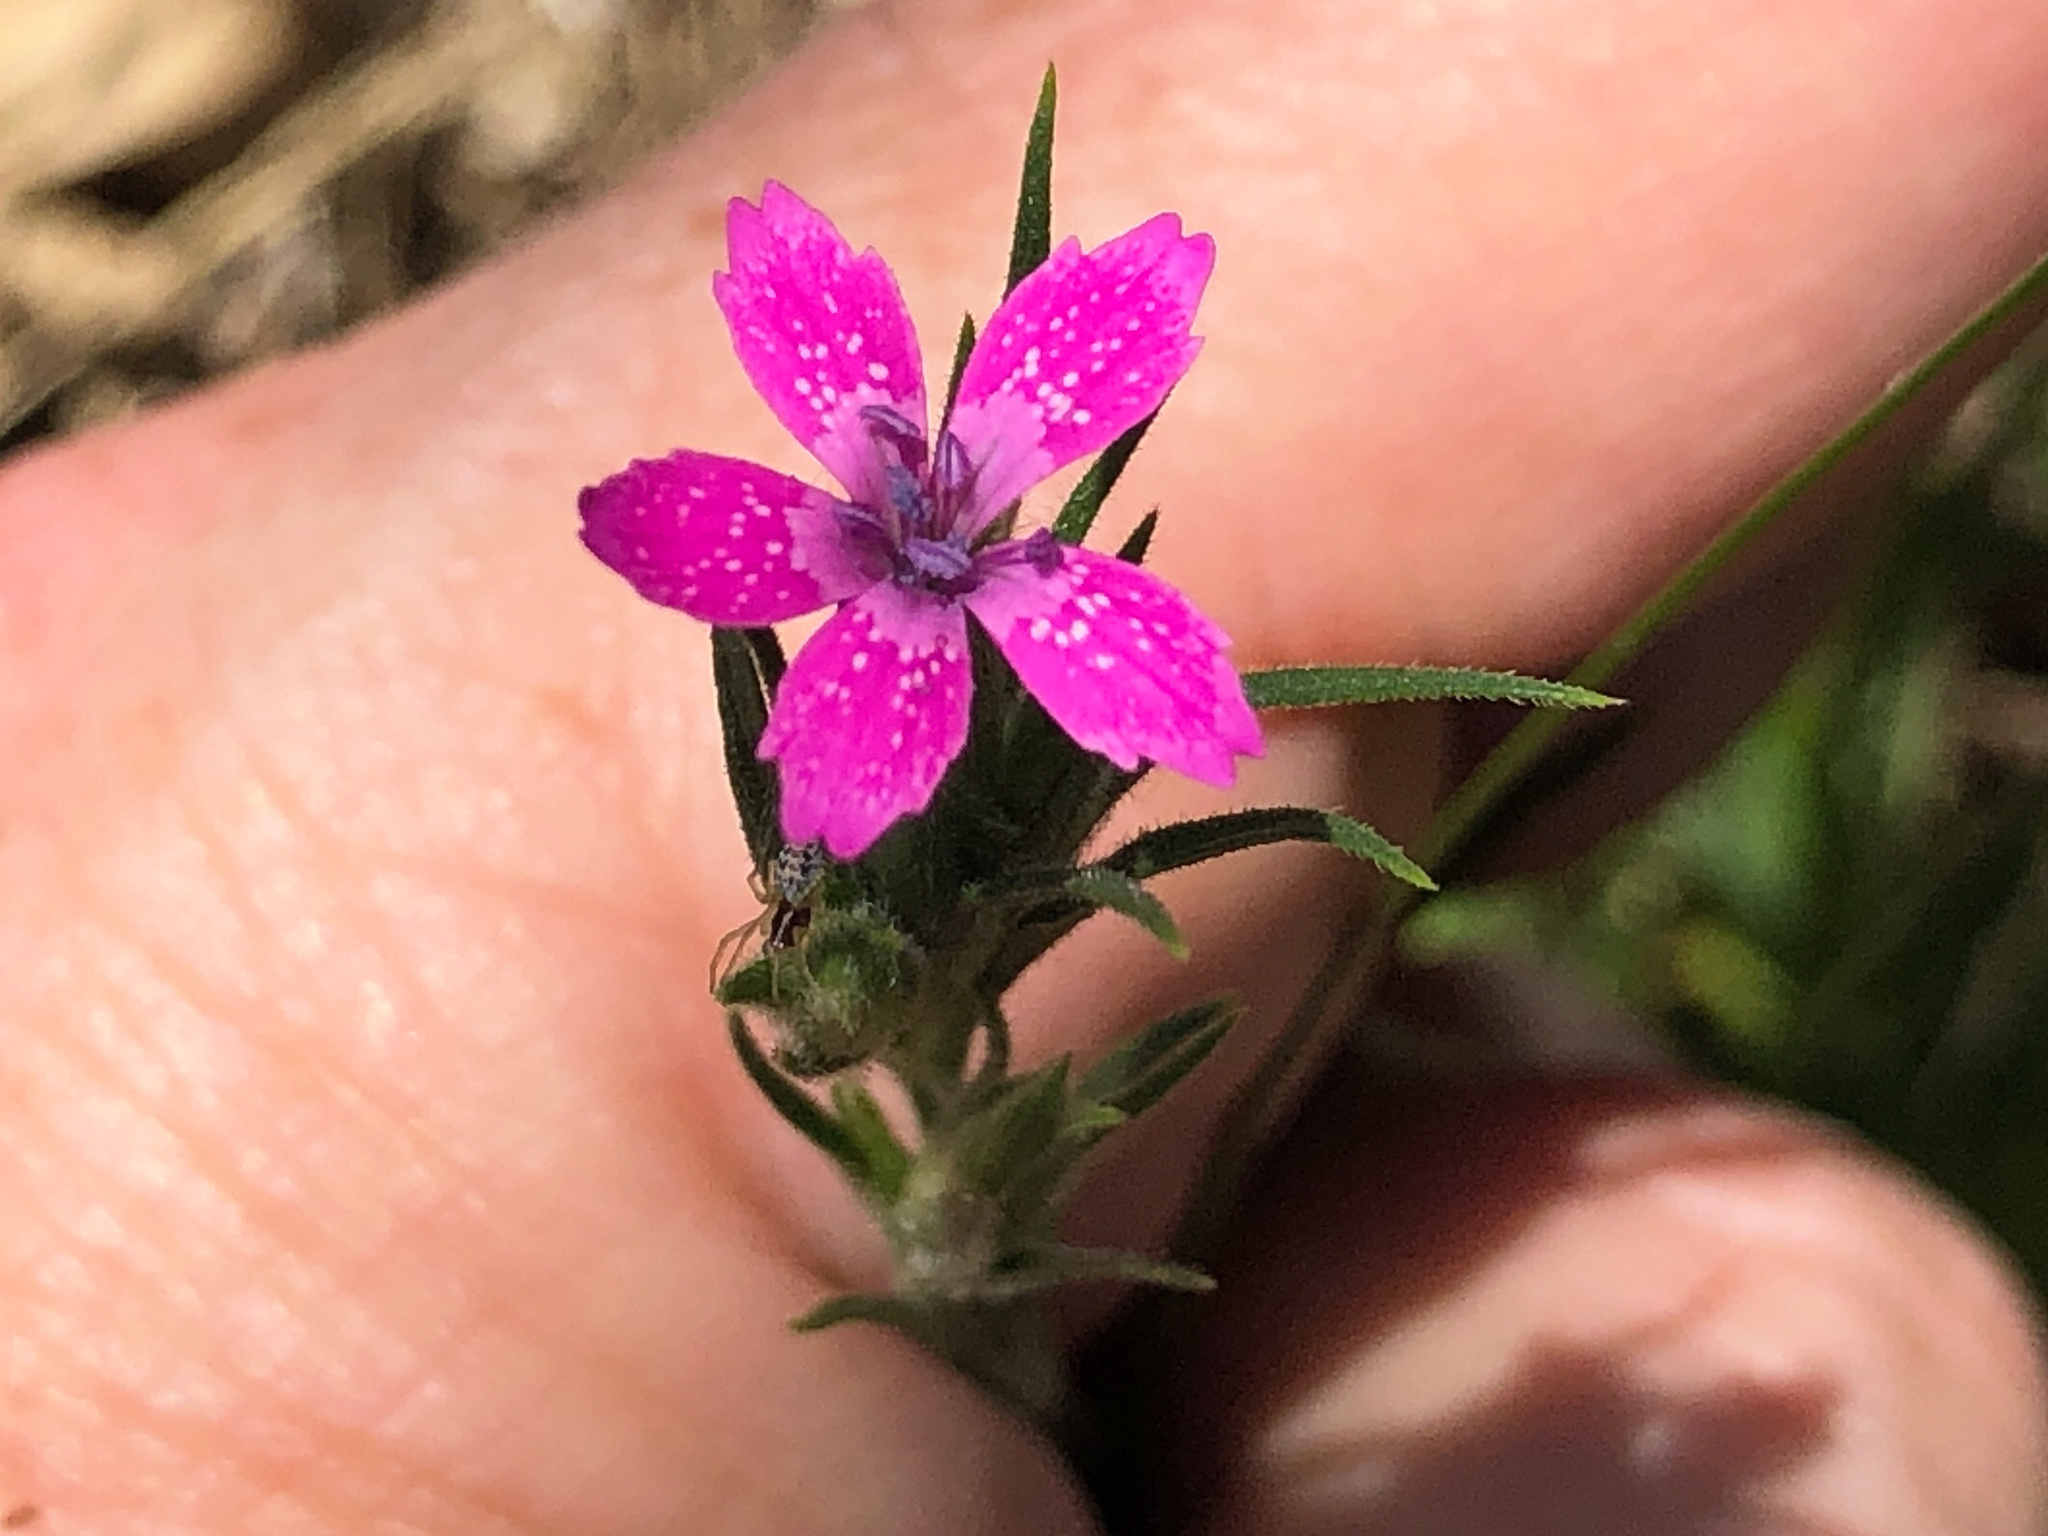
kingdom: Plantae
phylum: Tracheophyta
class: Magnoliopsida
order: Caryophyllales
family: Caryophyllaceae
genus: Dianthus
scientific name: Dianthus armeria
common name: Deptford pink
